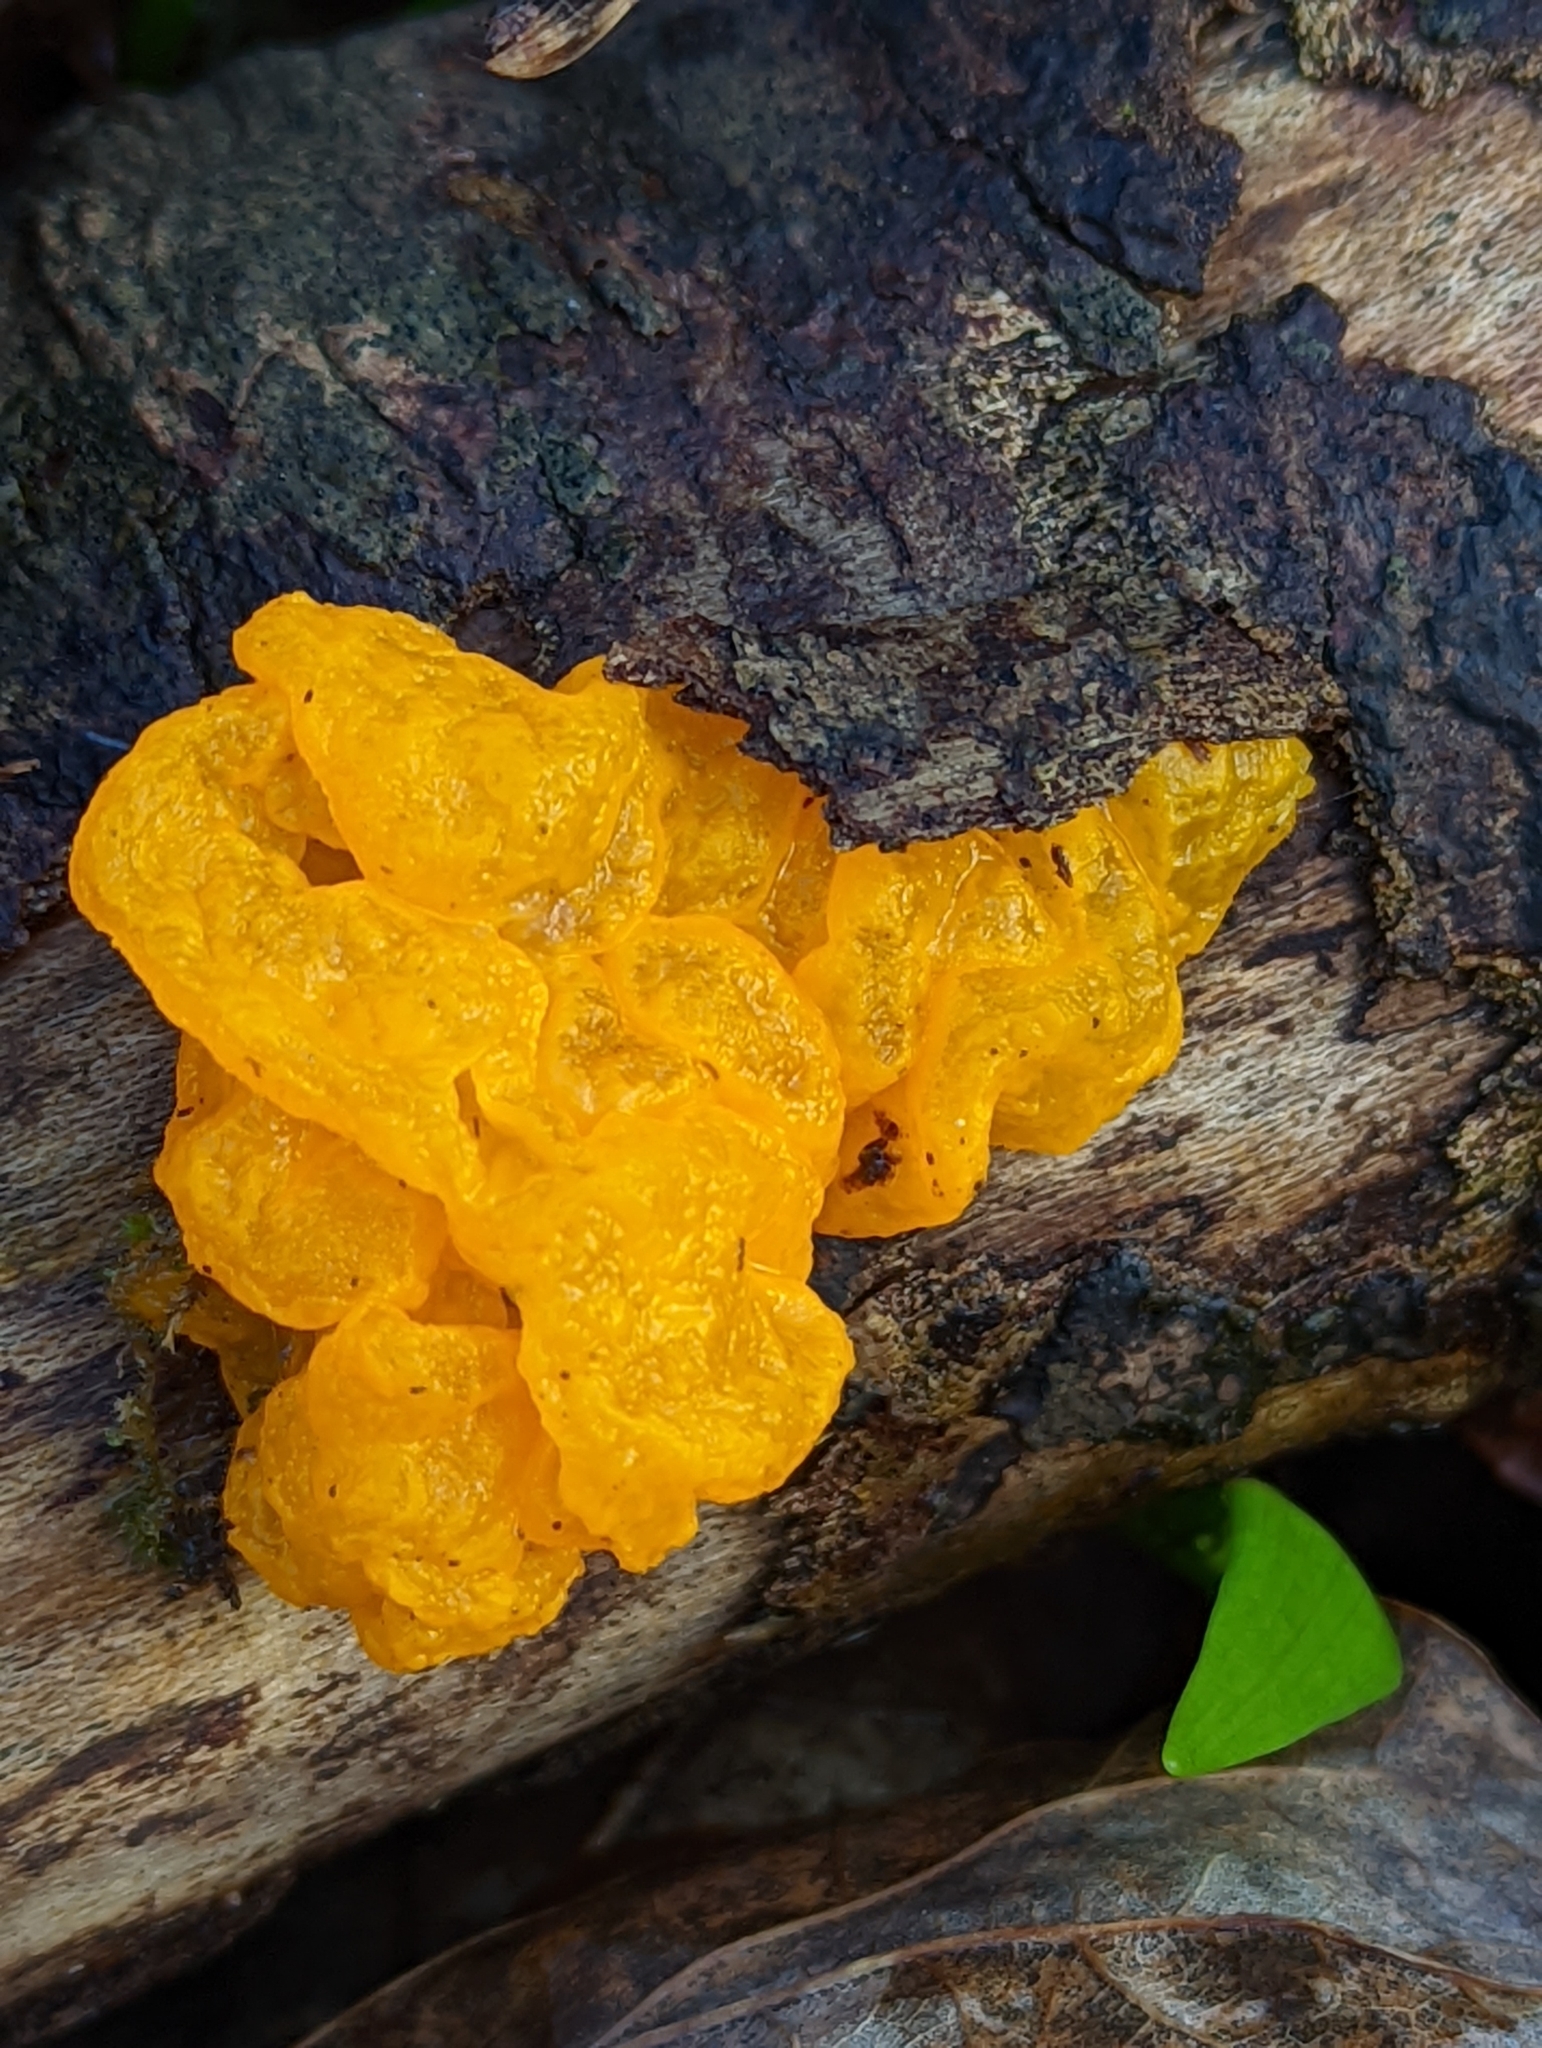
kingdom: Fungi
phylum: Basidiomycota
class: Tremellomycetes
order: Tremellales
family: Tremellaceae
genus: Tremella
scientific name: Tremella mesenterica
